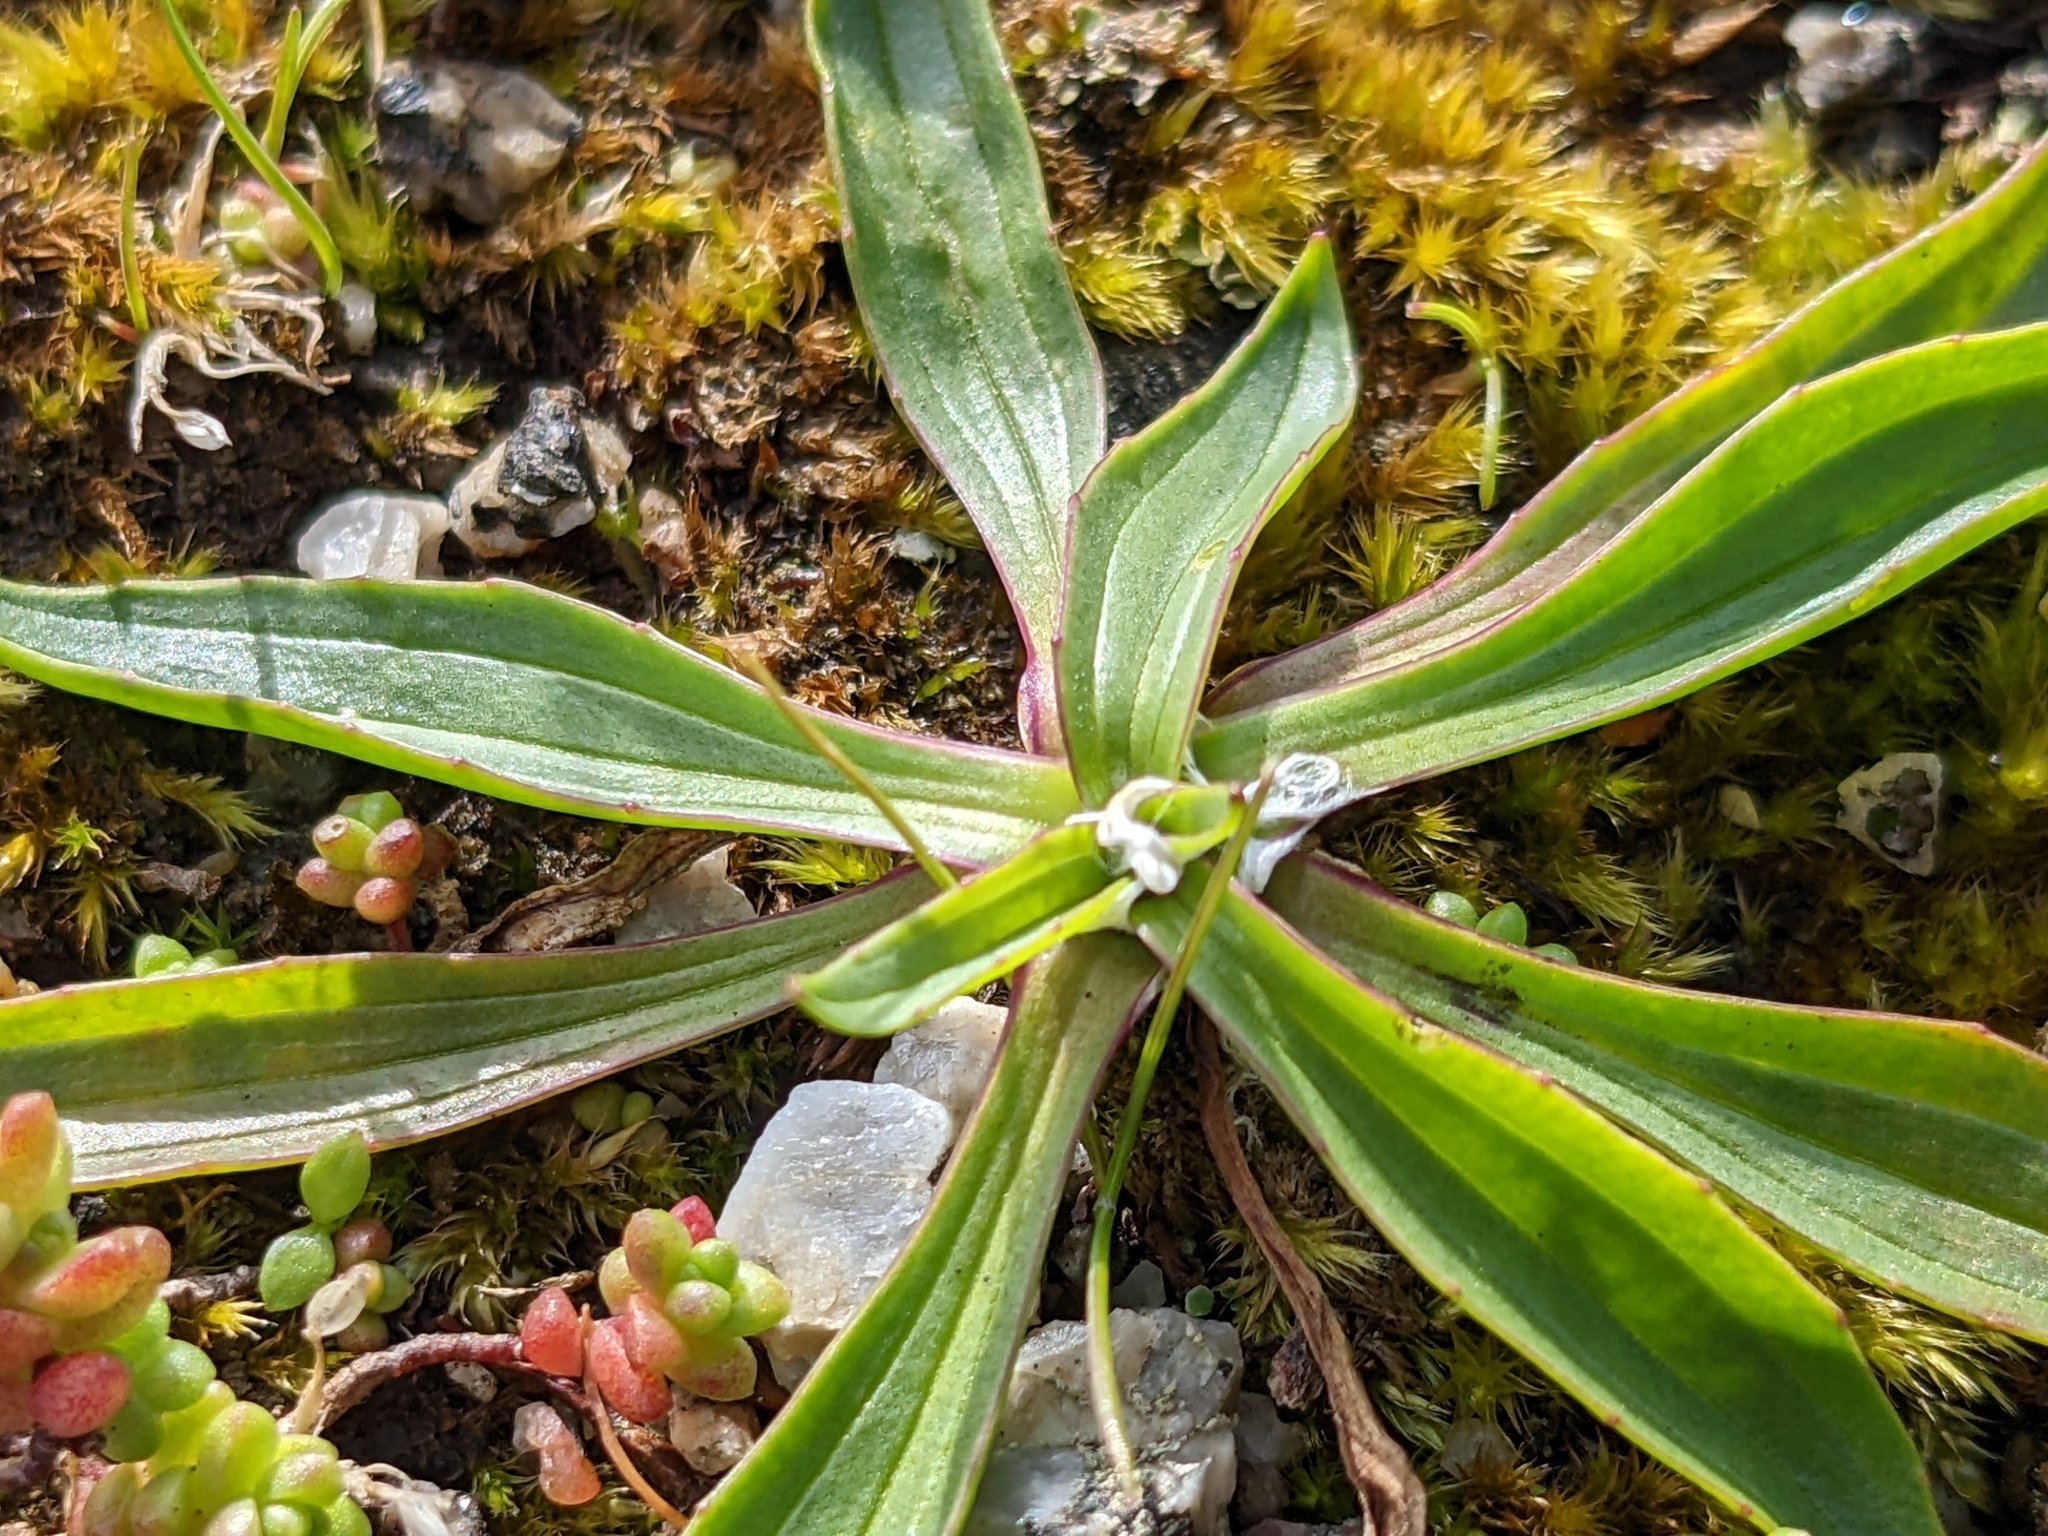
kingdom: Plantae
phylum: Tracheophyta
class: Magnoliopsida
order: Lamiales
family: Plantaginaceae
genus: Plantago
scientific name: Plantago lanceolata
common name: Ribwort plantain
